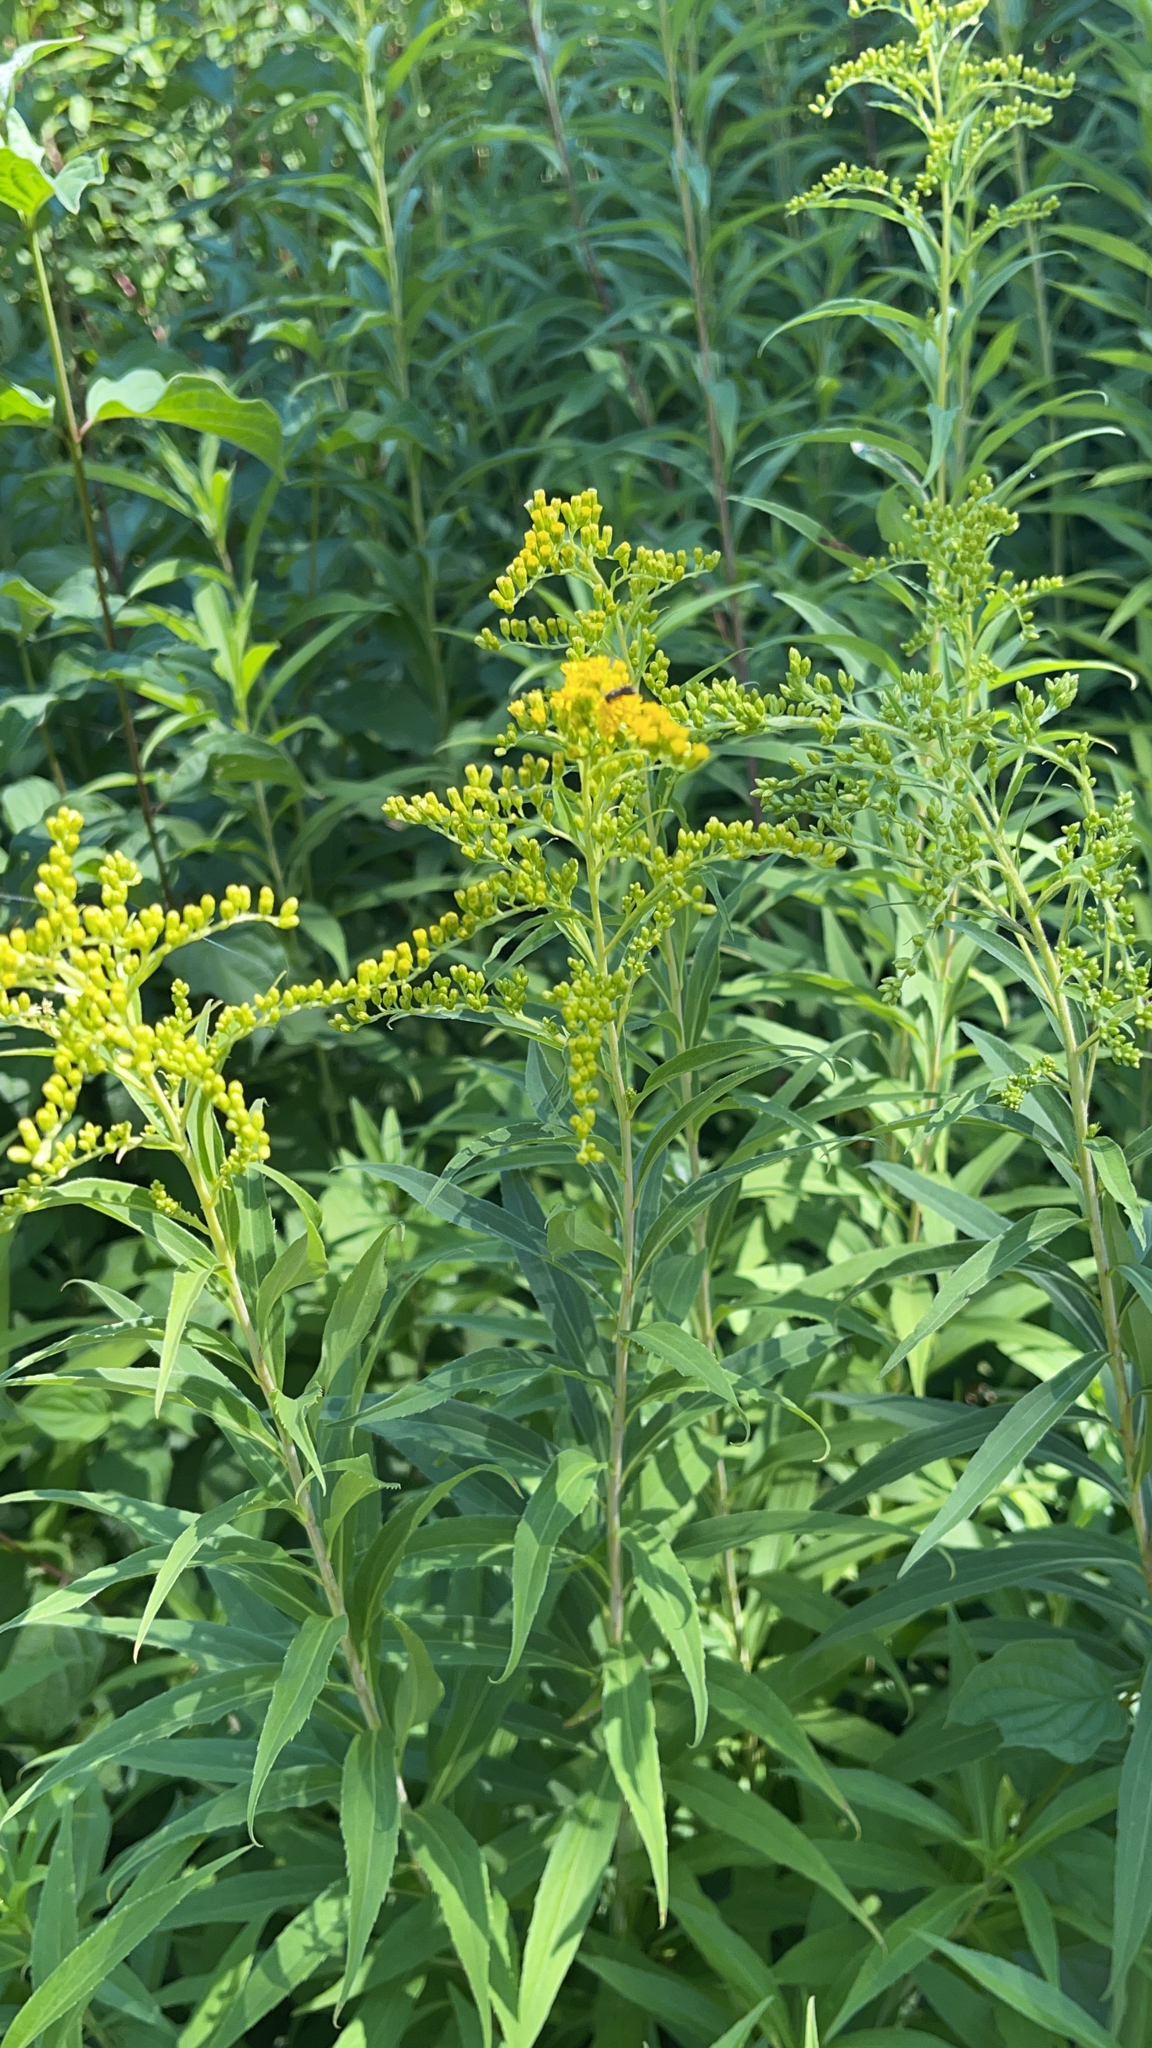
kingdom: Plantae
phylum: Tracheophyta
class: Magnoliopsida
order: Asterales
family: Asteraceae
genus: Solidago
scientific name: Solidago gigantea
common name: Giant goldenrod
